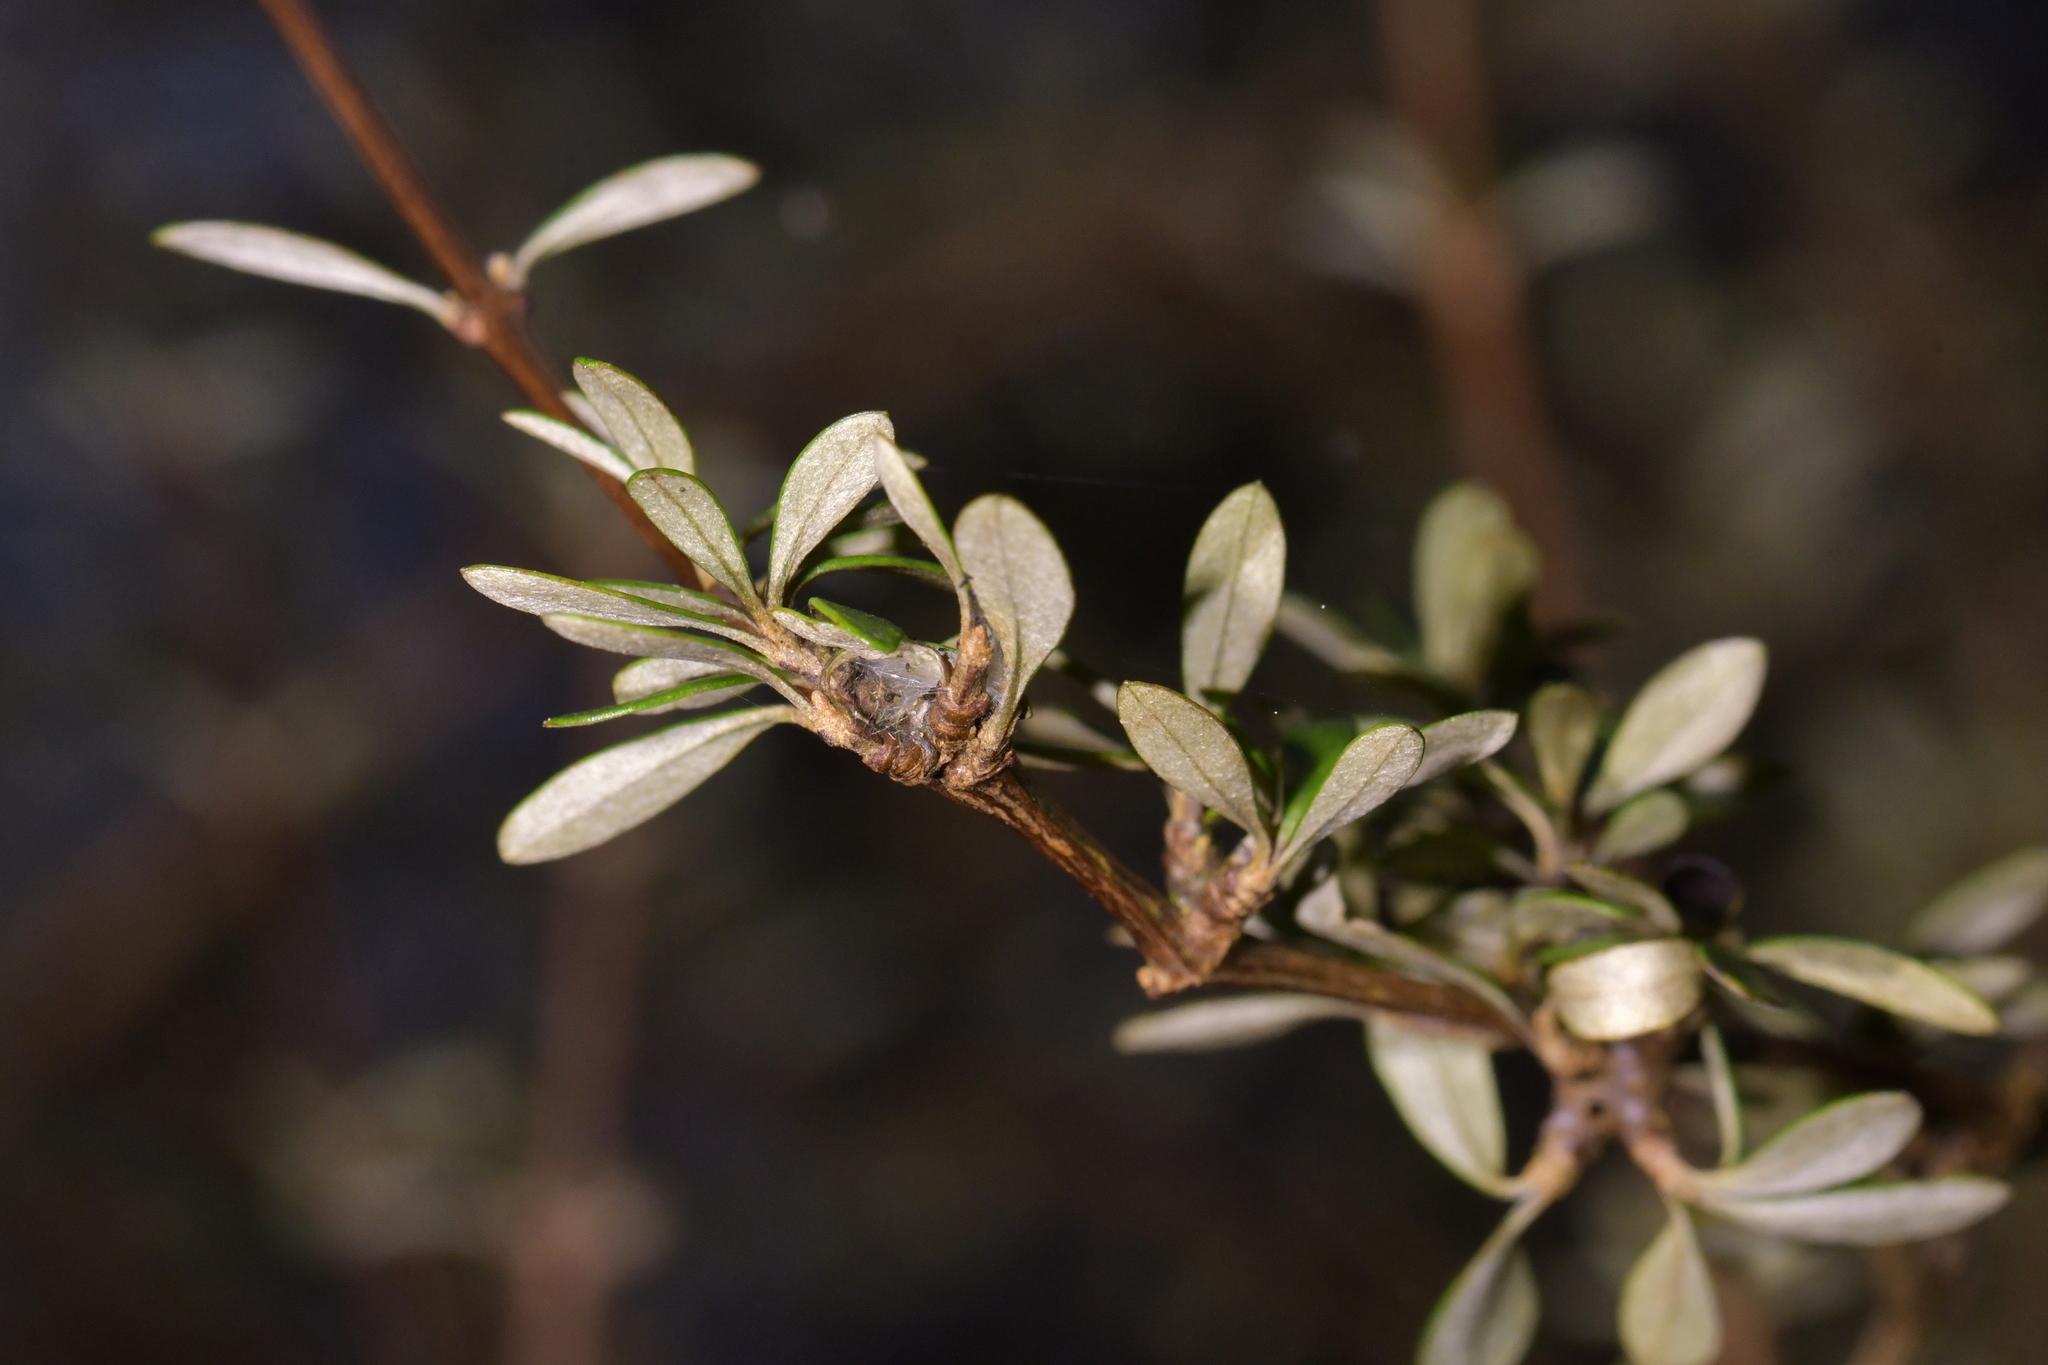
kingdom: Plantae
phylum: Tracheophyta
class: Magnoliopsida
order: Asterales
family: Asteraceae
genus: Olearia
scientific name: Olearia virgata
